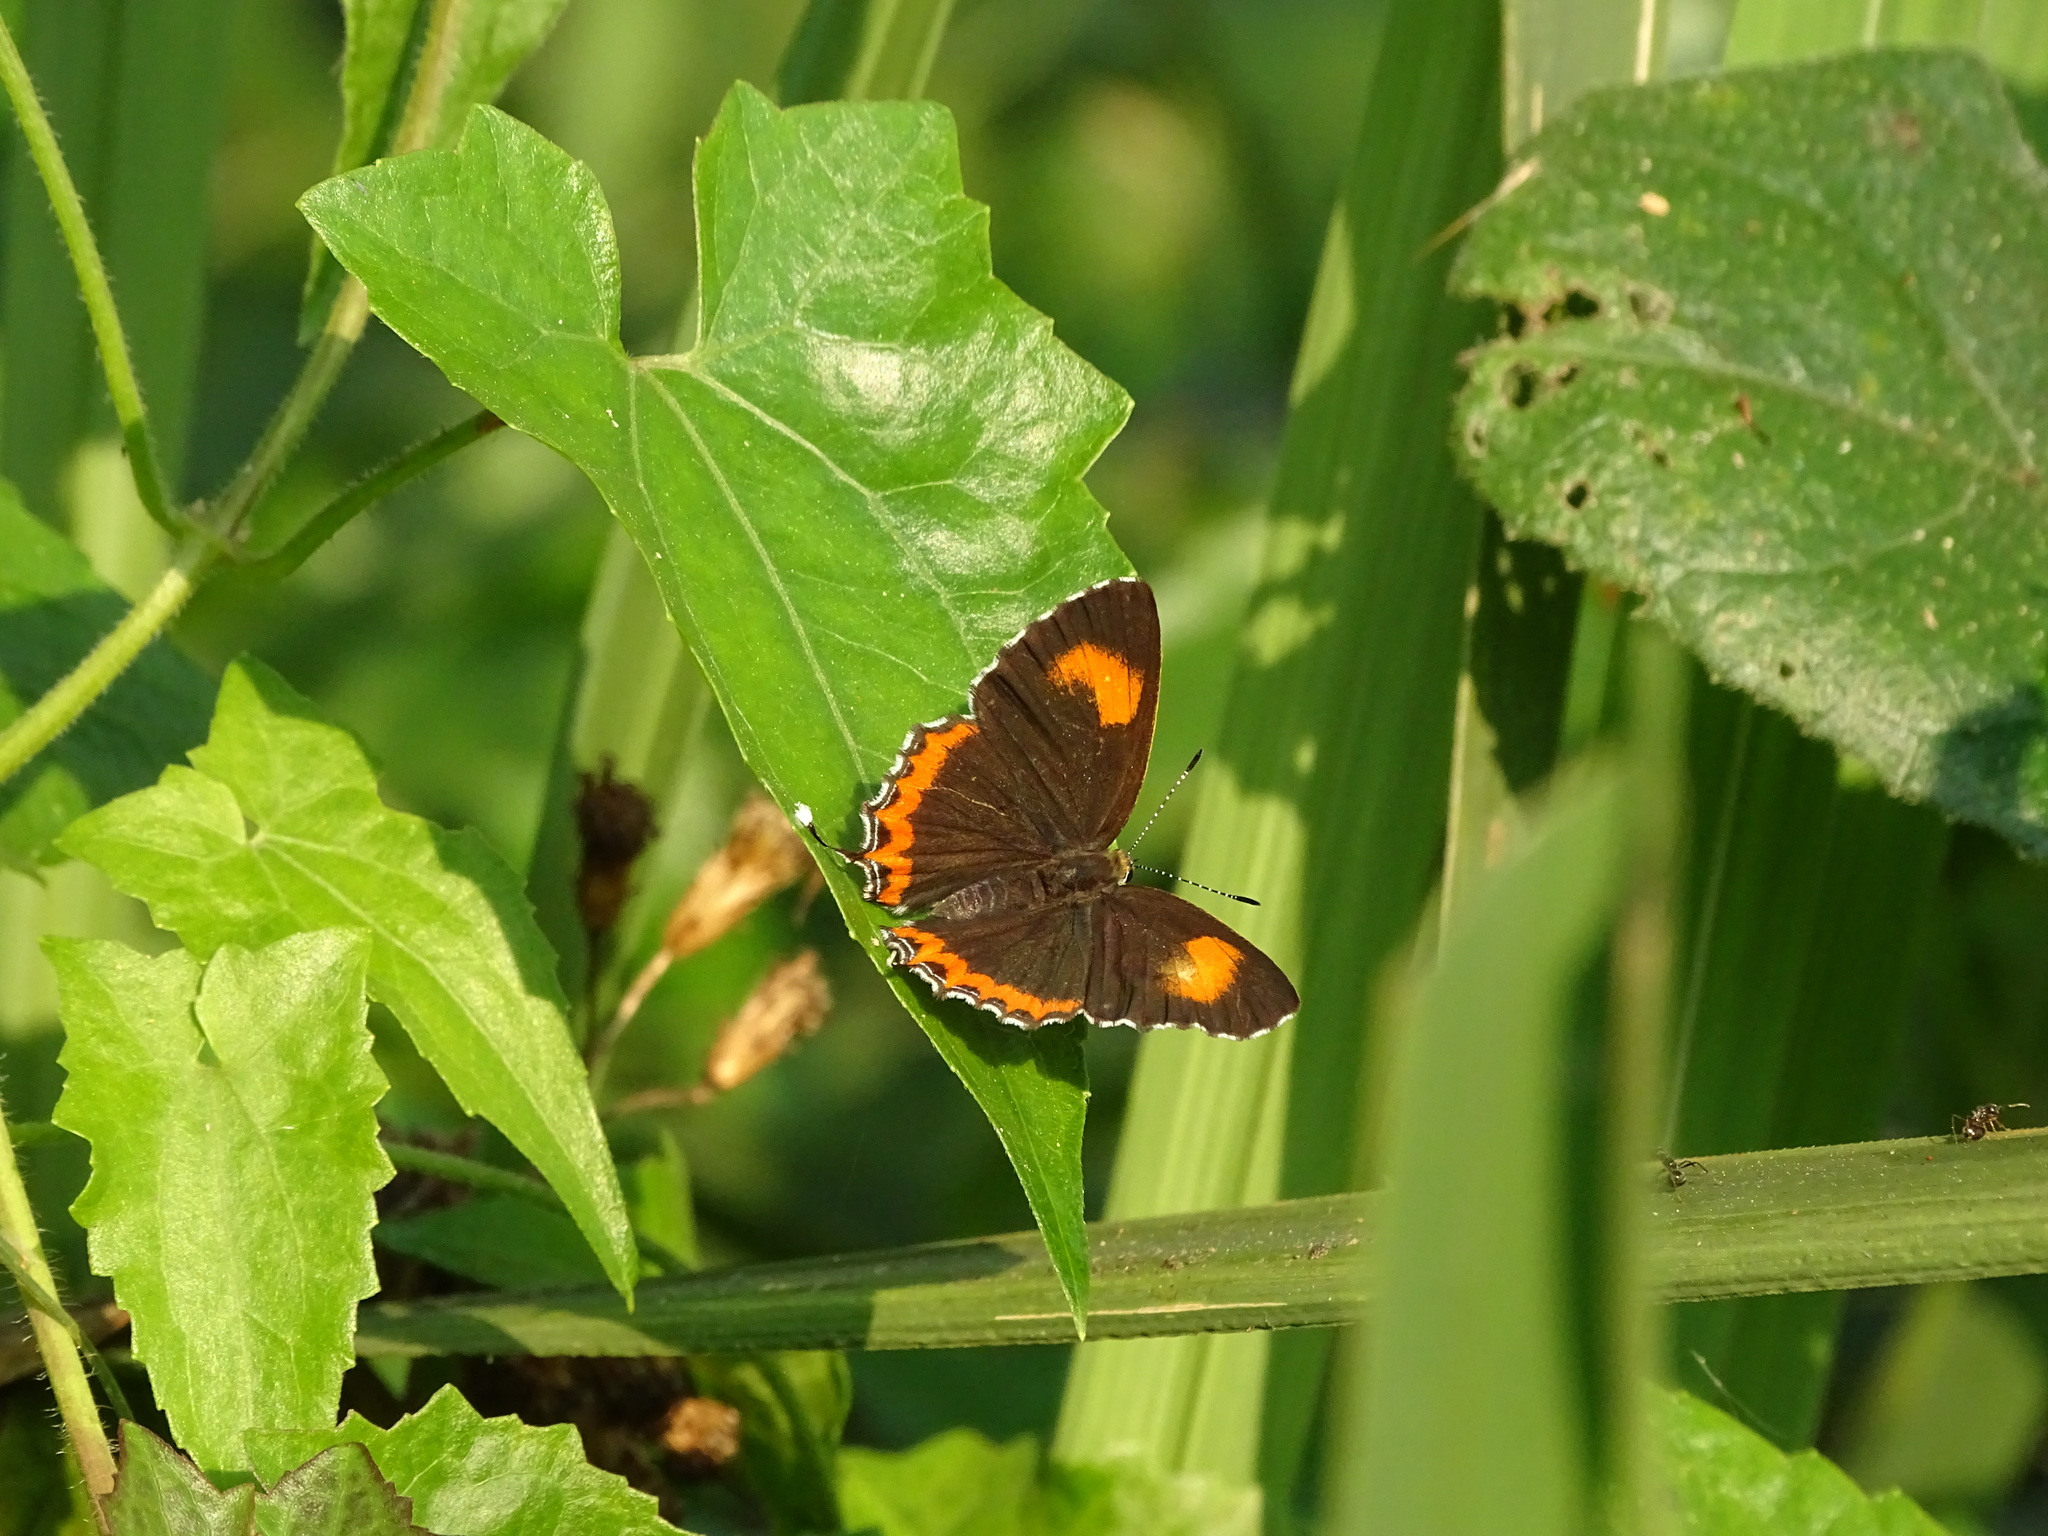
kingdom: Animalia
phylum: Arthropoda
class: Insecta
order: Lepidoptera
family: Lycaenidae
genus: Heliophorus
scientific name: Heliophorus epicles
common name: Purple sapphire
